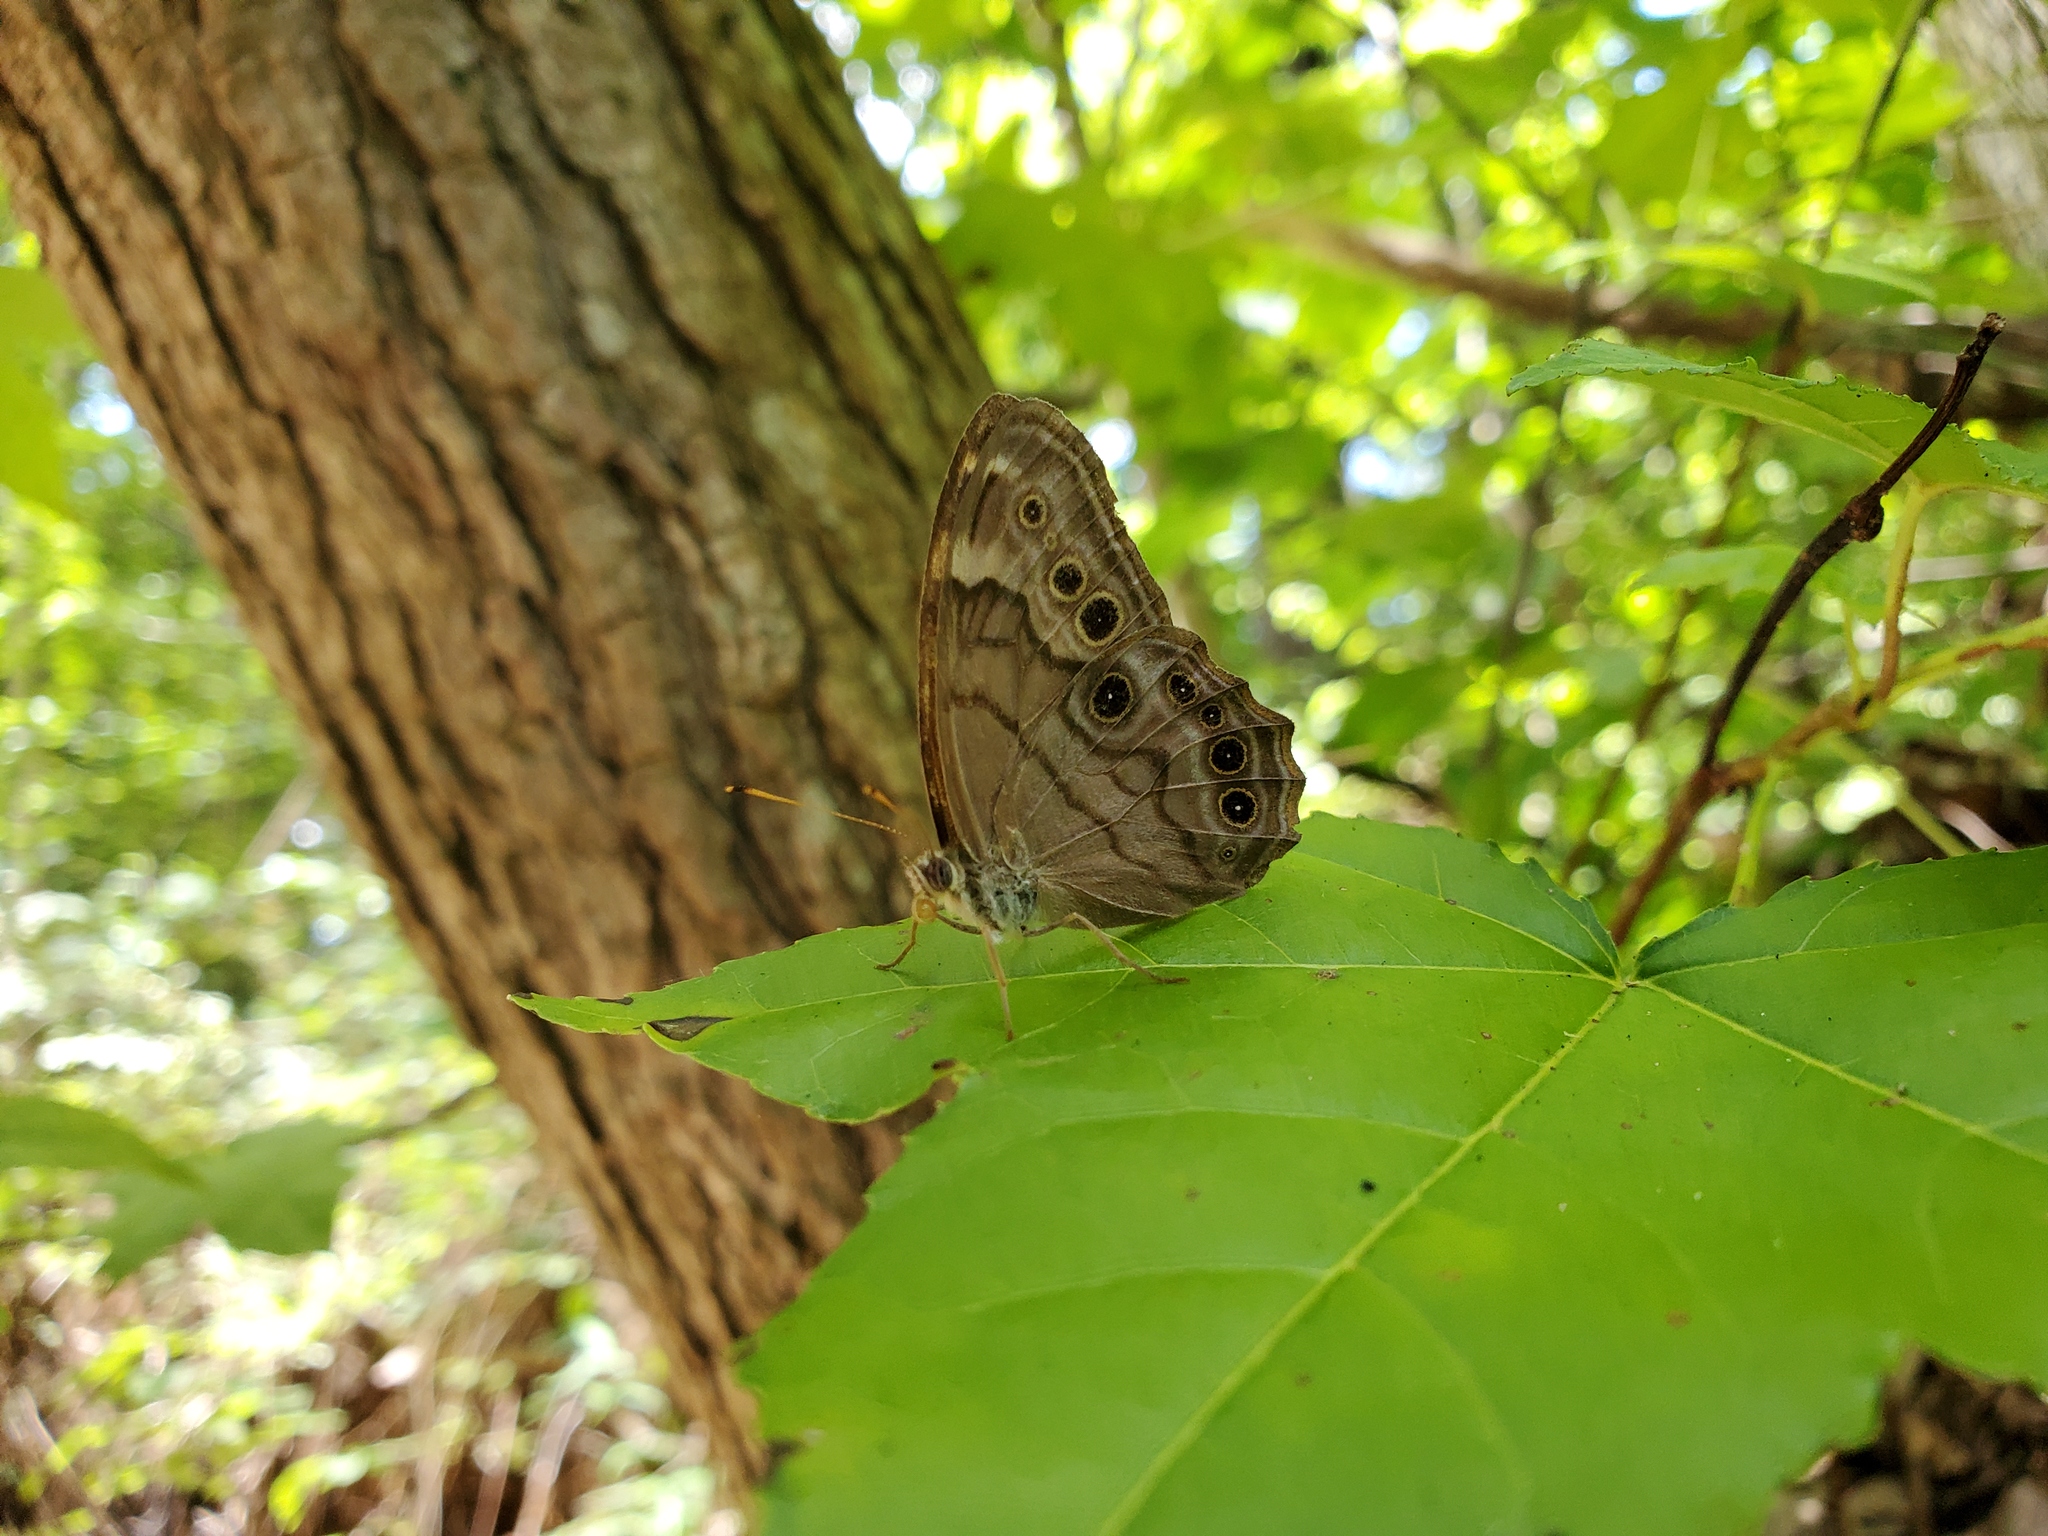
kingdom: Animalia
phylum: Arthropoda
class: Insecta
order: Lepidoptera
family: Nymphalidae
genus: Lethe
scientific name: Lethe anthedon
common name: Northern pearly-eye
